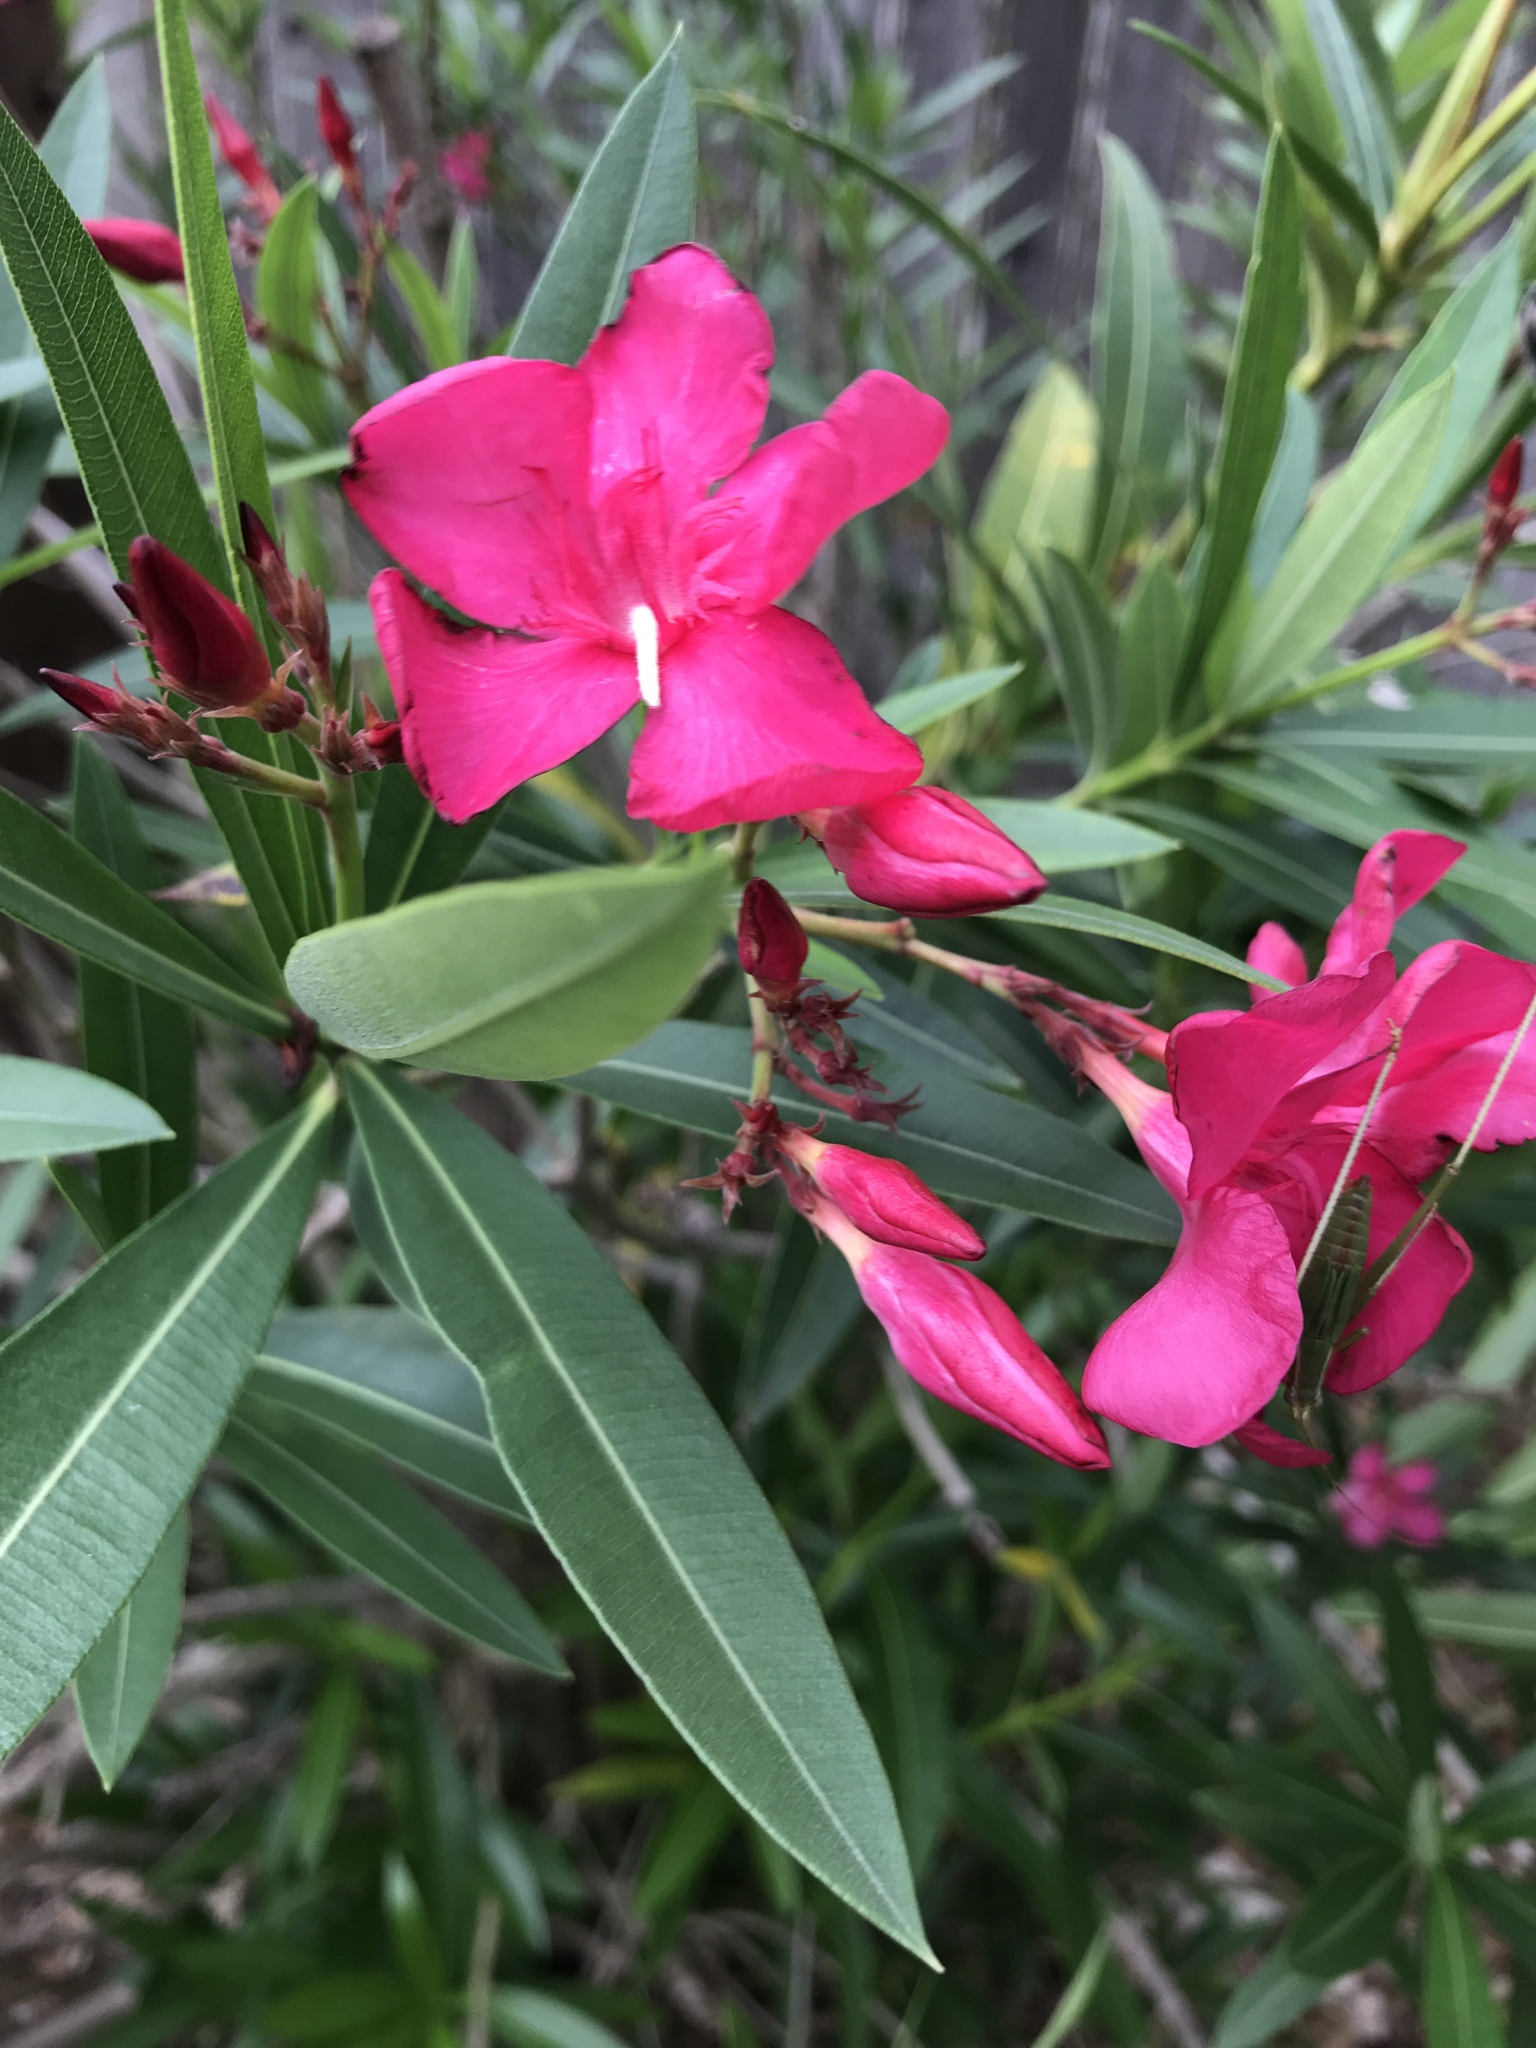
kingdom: Plantae
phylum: Tracheophyta
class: Magnoliopsida
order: Gentianales
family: Apocynaceae
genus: Nerium
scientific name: Nerium oleander
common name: Oleander
